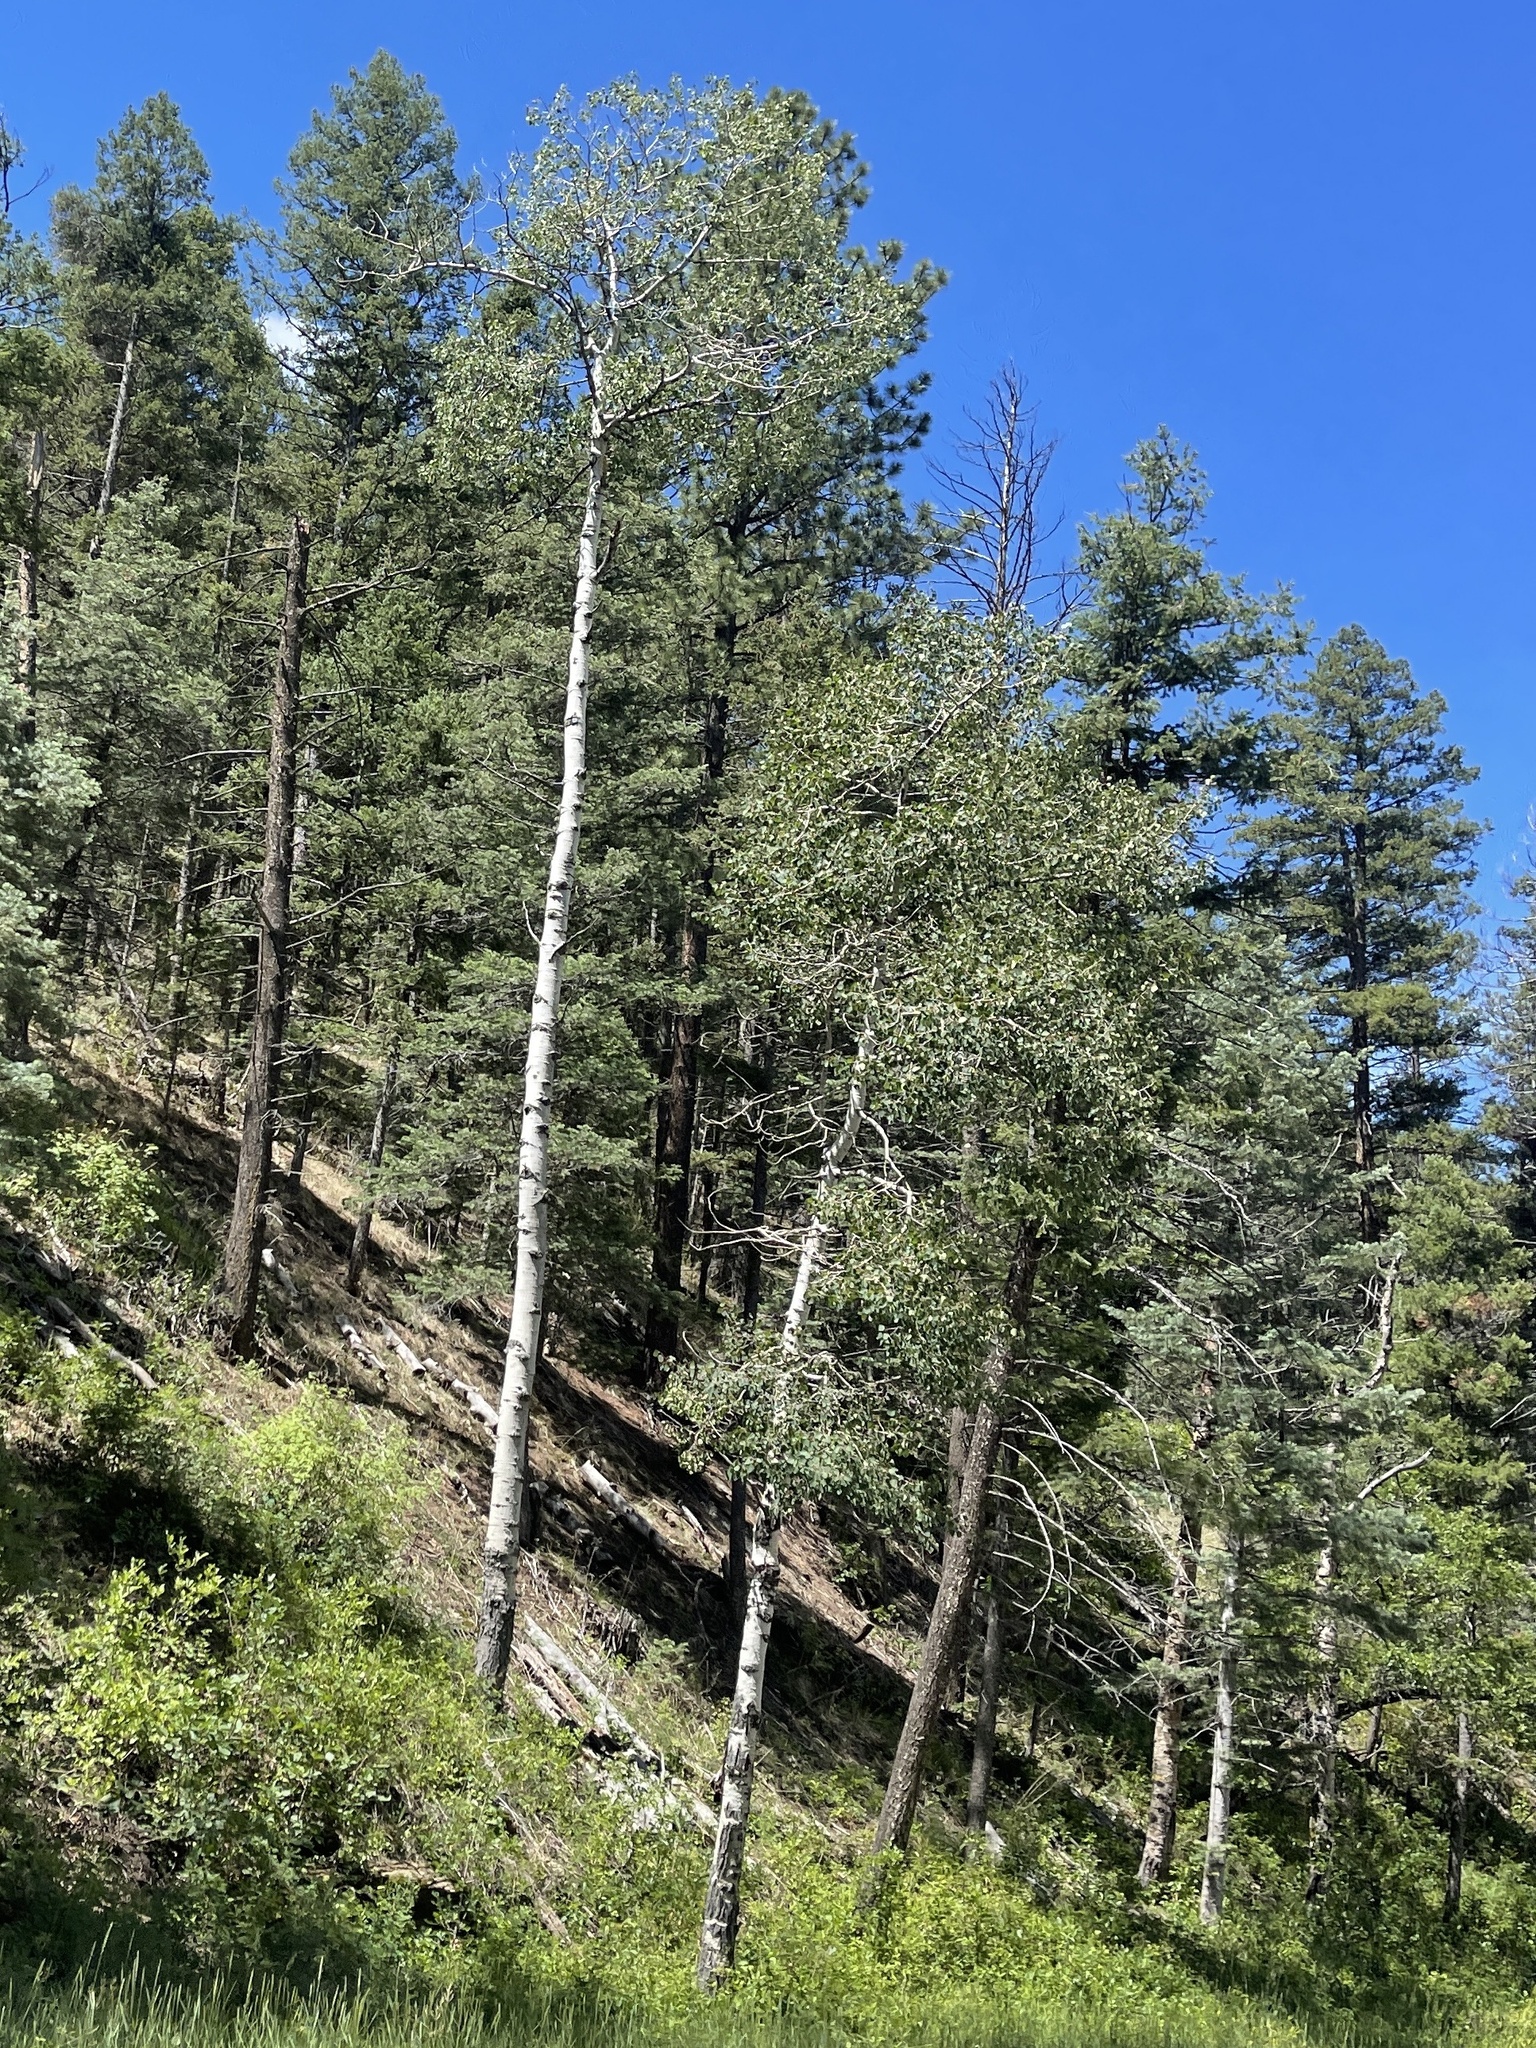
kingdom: Plantae
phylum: Tracheophyta
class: Magnoliopsida
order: Malpighiales
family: Salicaceae
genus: Populus
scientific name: Populus tremuloides
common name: Quaking aspen
